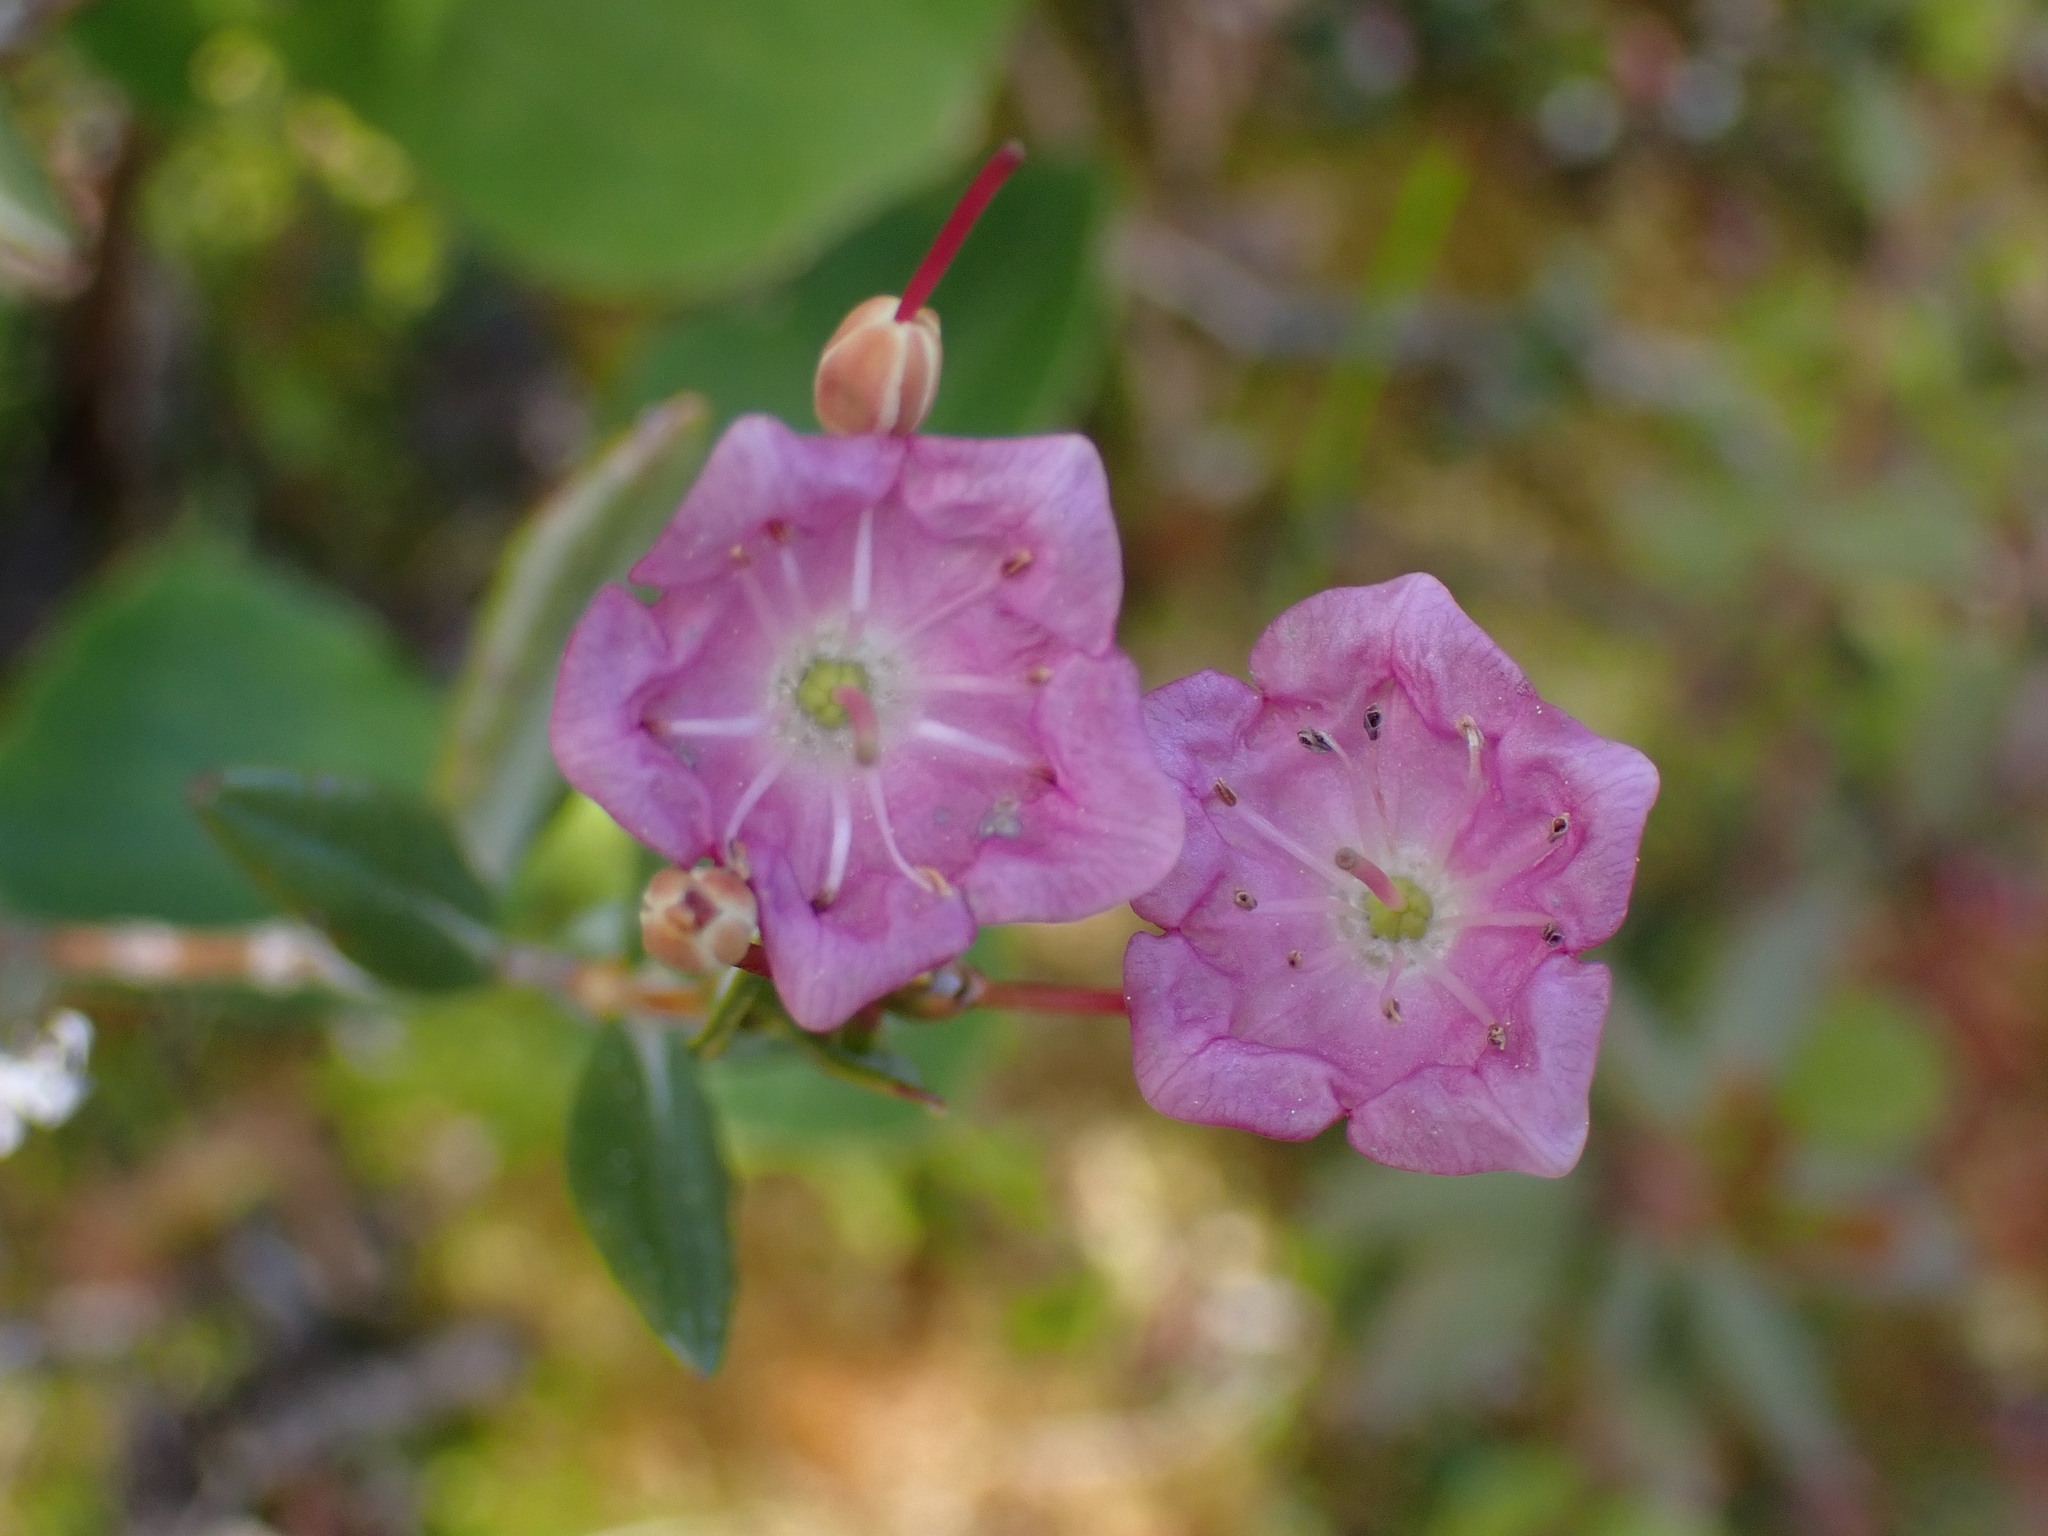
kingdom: Plantae
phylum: Tracheophyta
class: Magnoliopsida
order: Ericales
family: Ericaceae
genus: Kalmia
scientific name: Kalmia microphylla
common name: Alpine bog laurel
